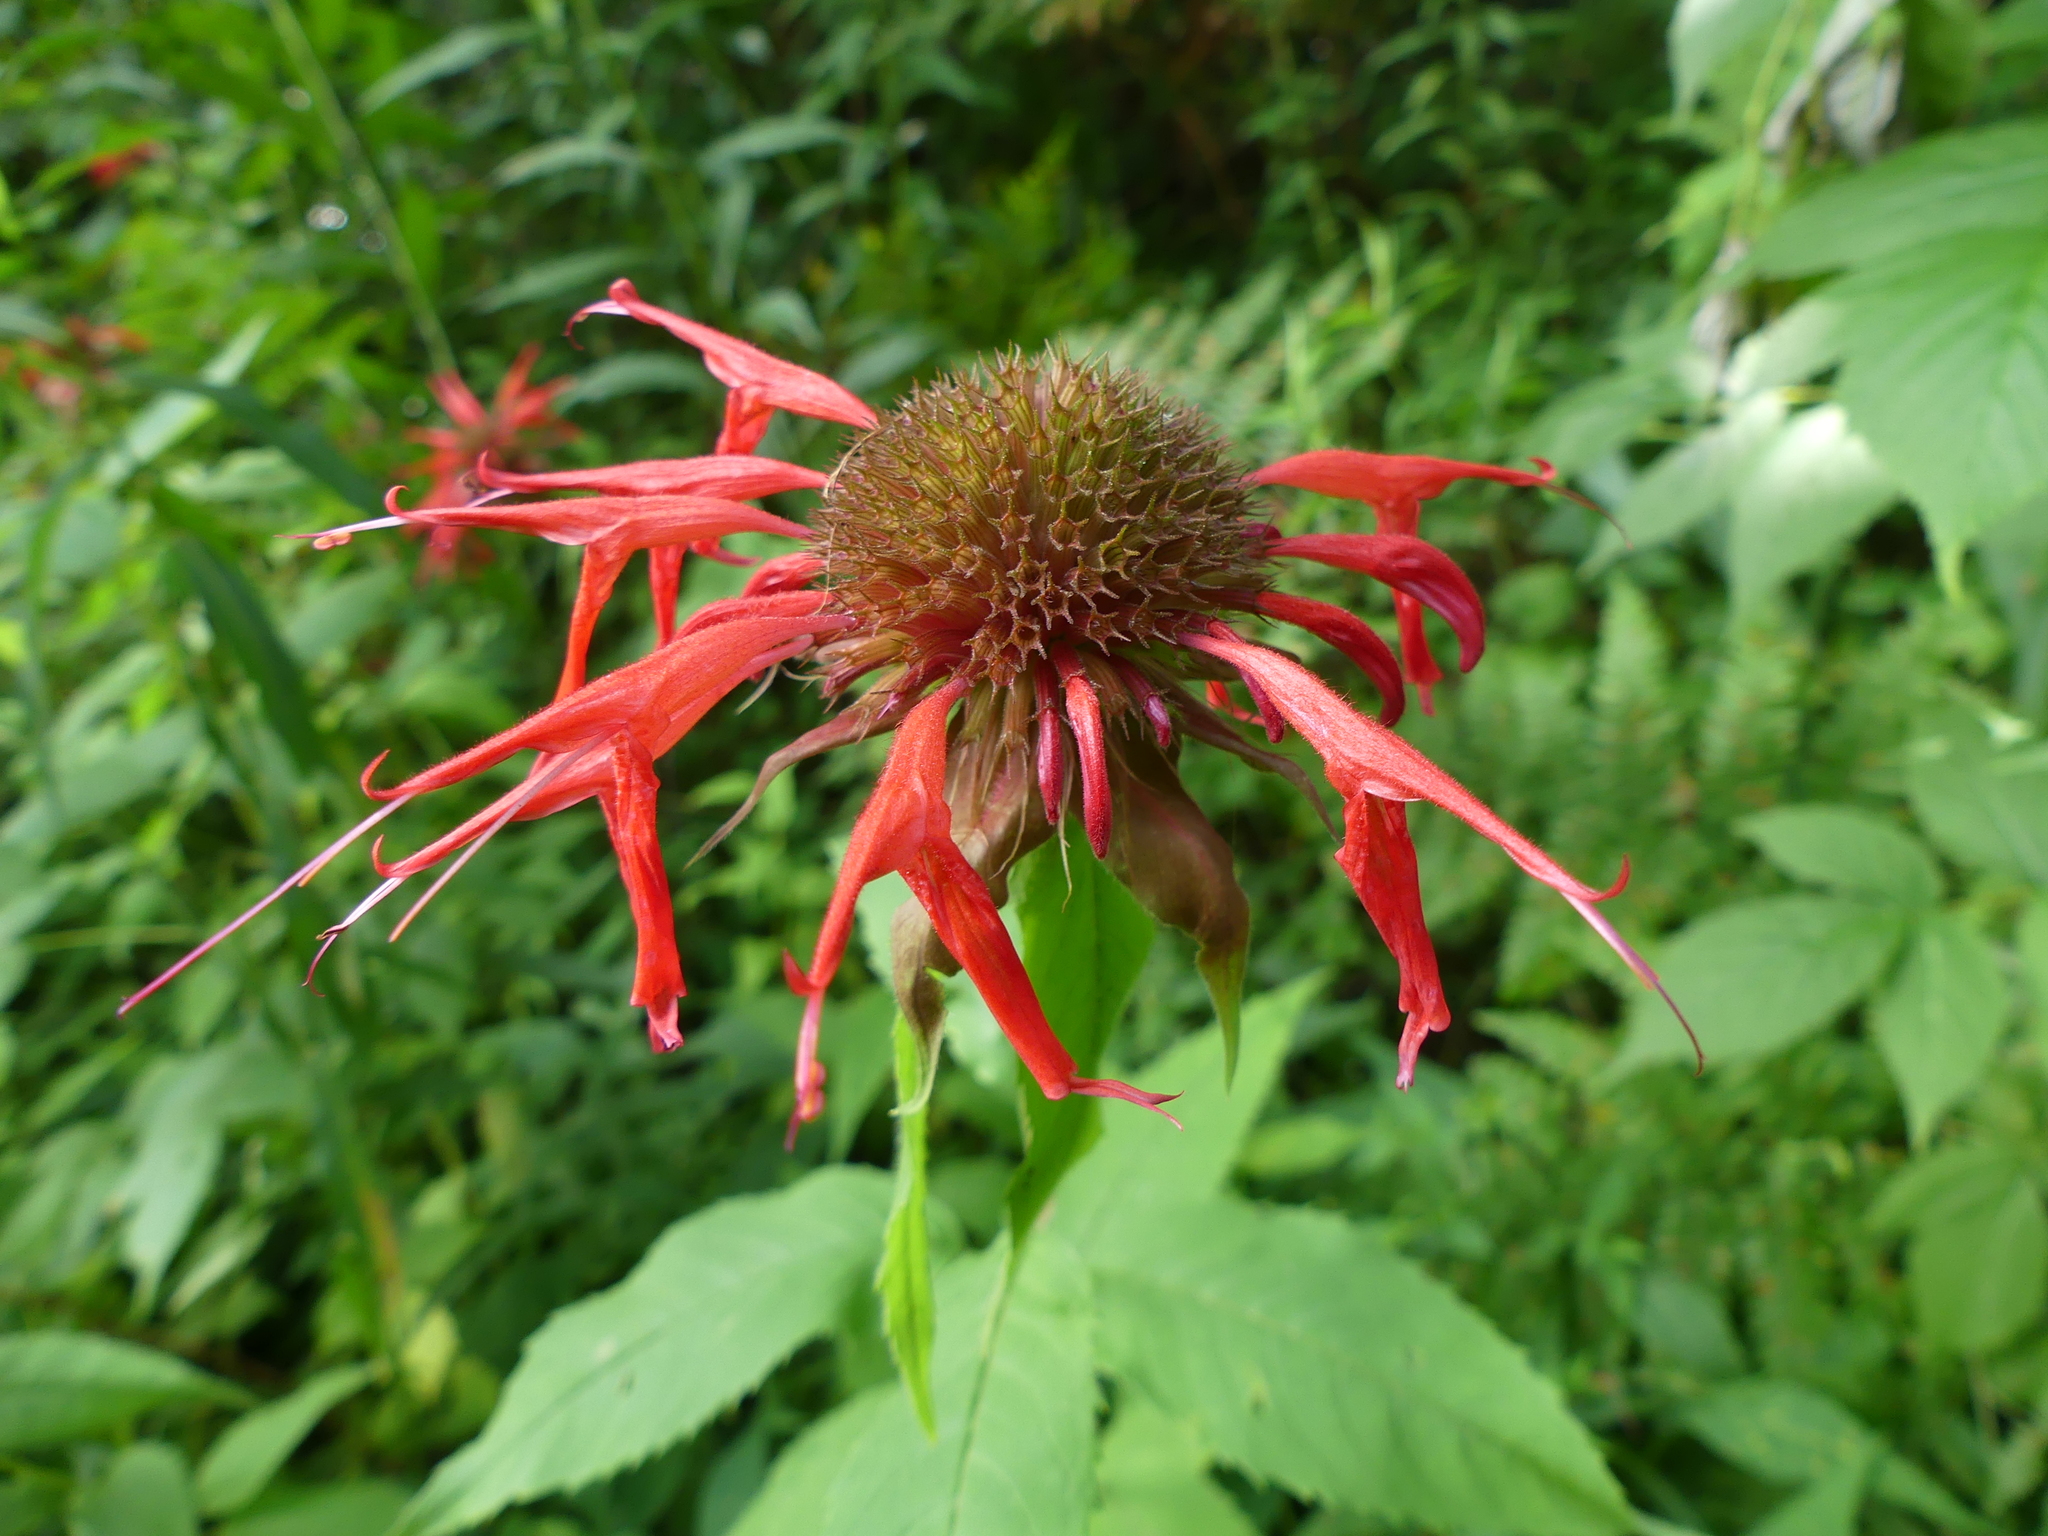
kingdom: Plantae
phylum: Tracheophyta
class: Magnoliopsida
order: Lamiales
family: Lamiaceae
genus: Monarda
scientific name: Monarda didyma
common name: Beebalm
